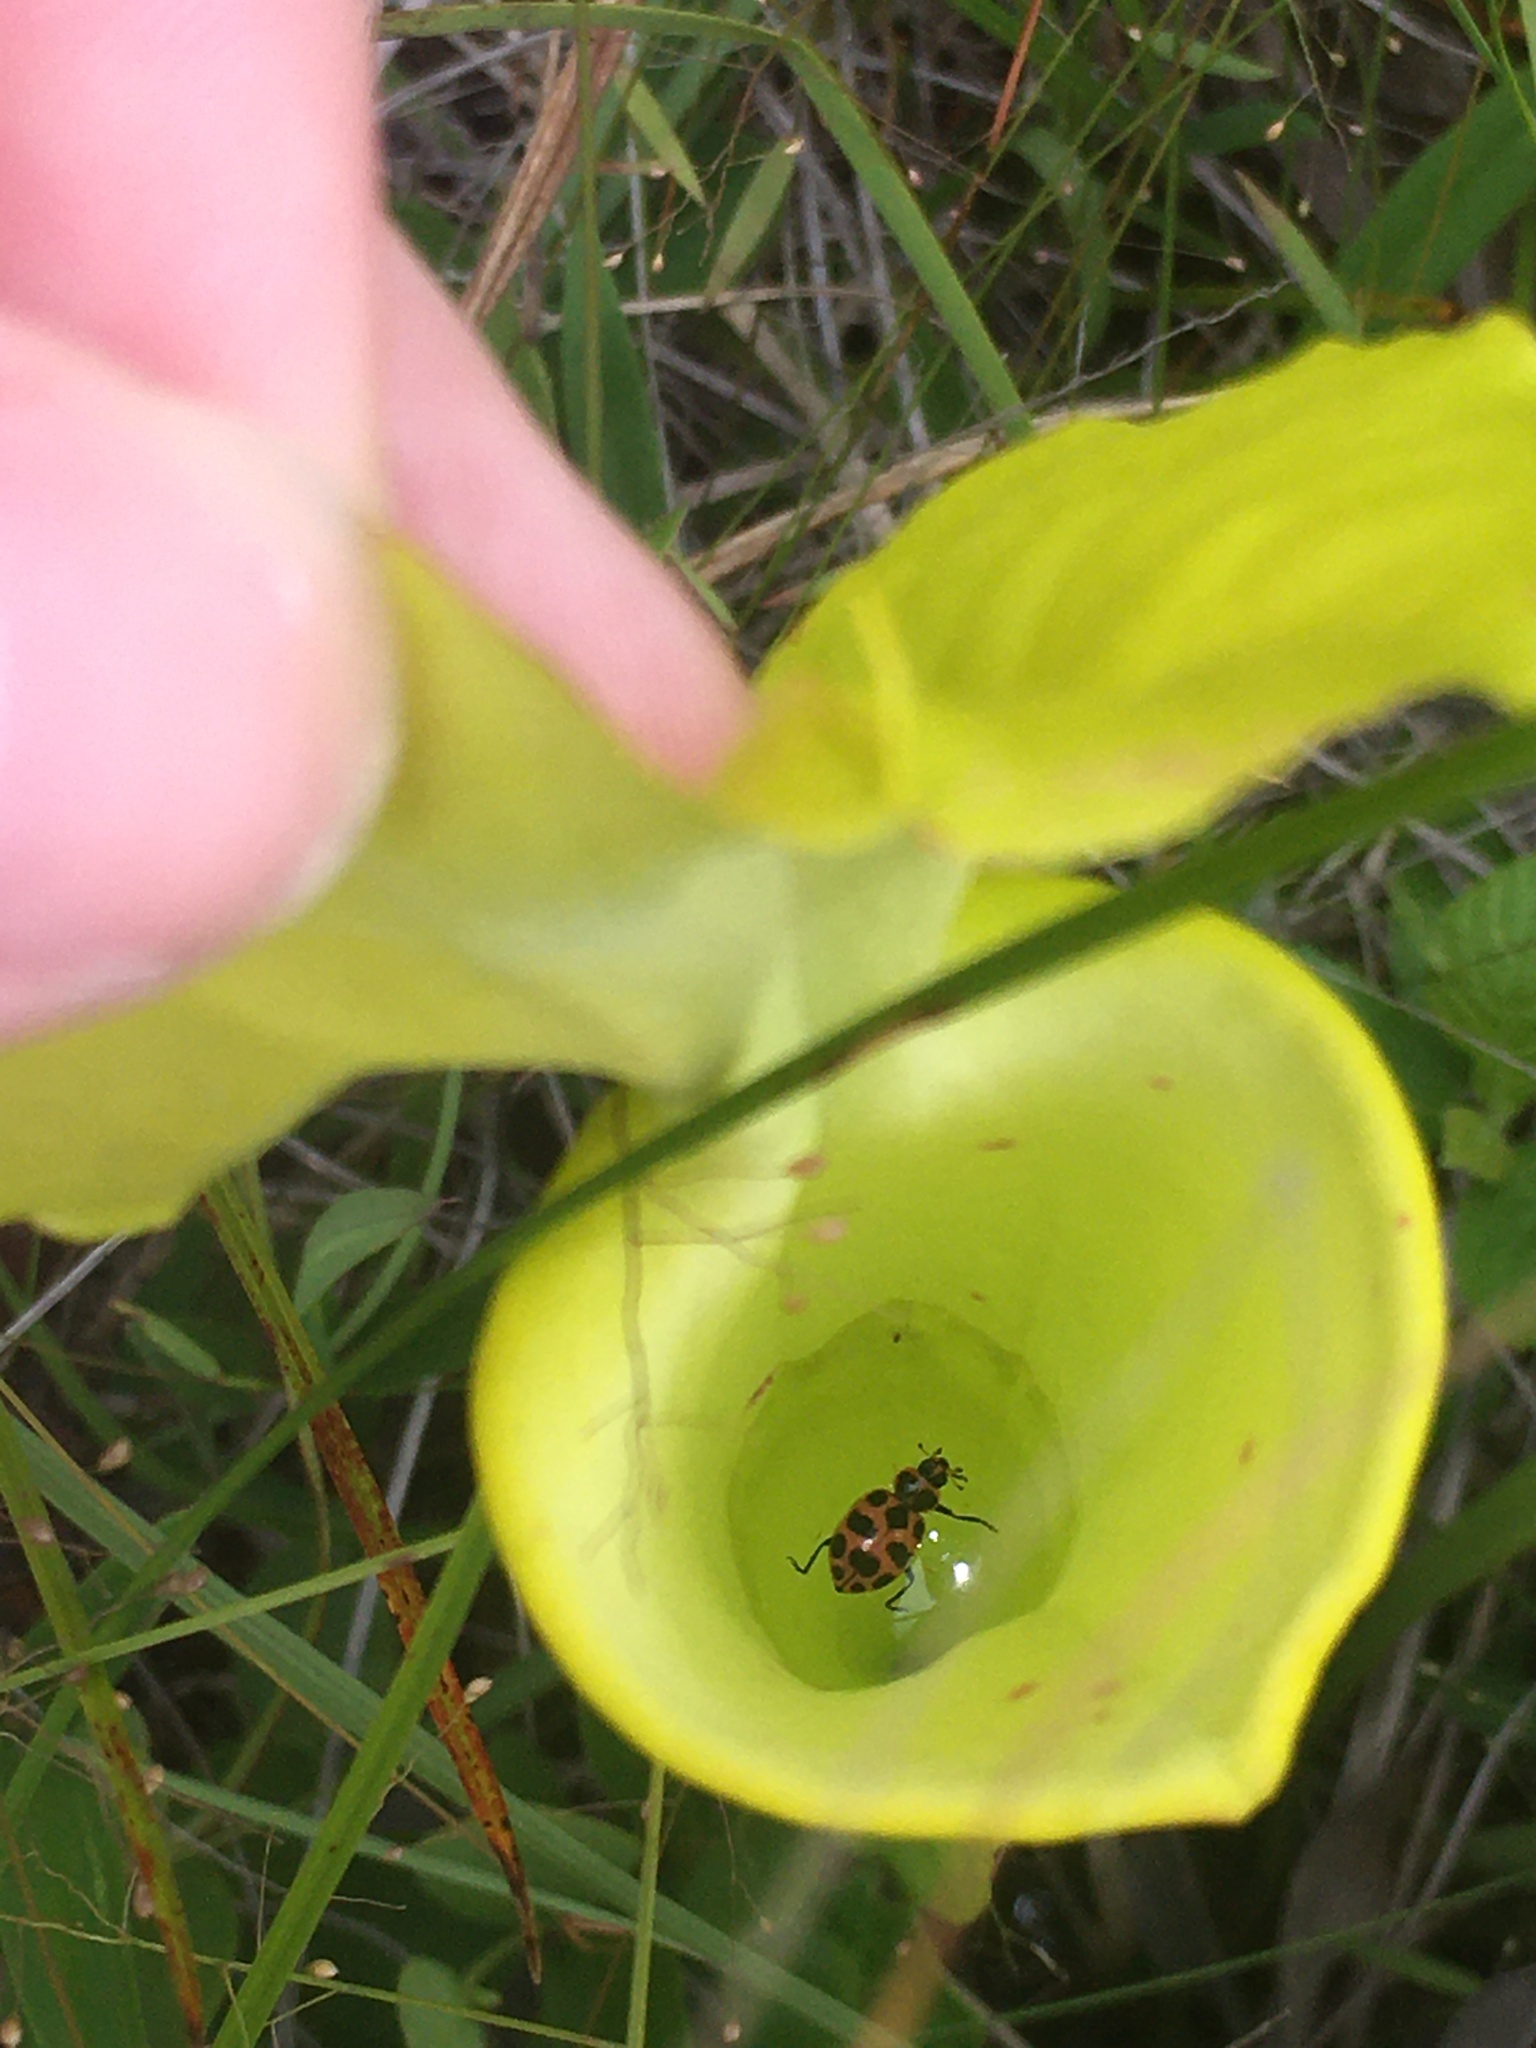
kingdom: Animalia
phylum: Arthropoda
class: Insecta
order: Coleoptera
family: Coccinellidae
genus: Coleomegilla
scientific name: Coleomegilla maculata
